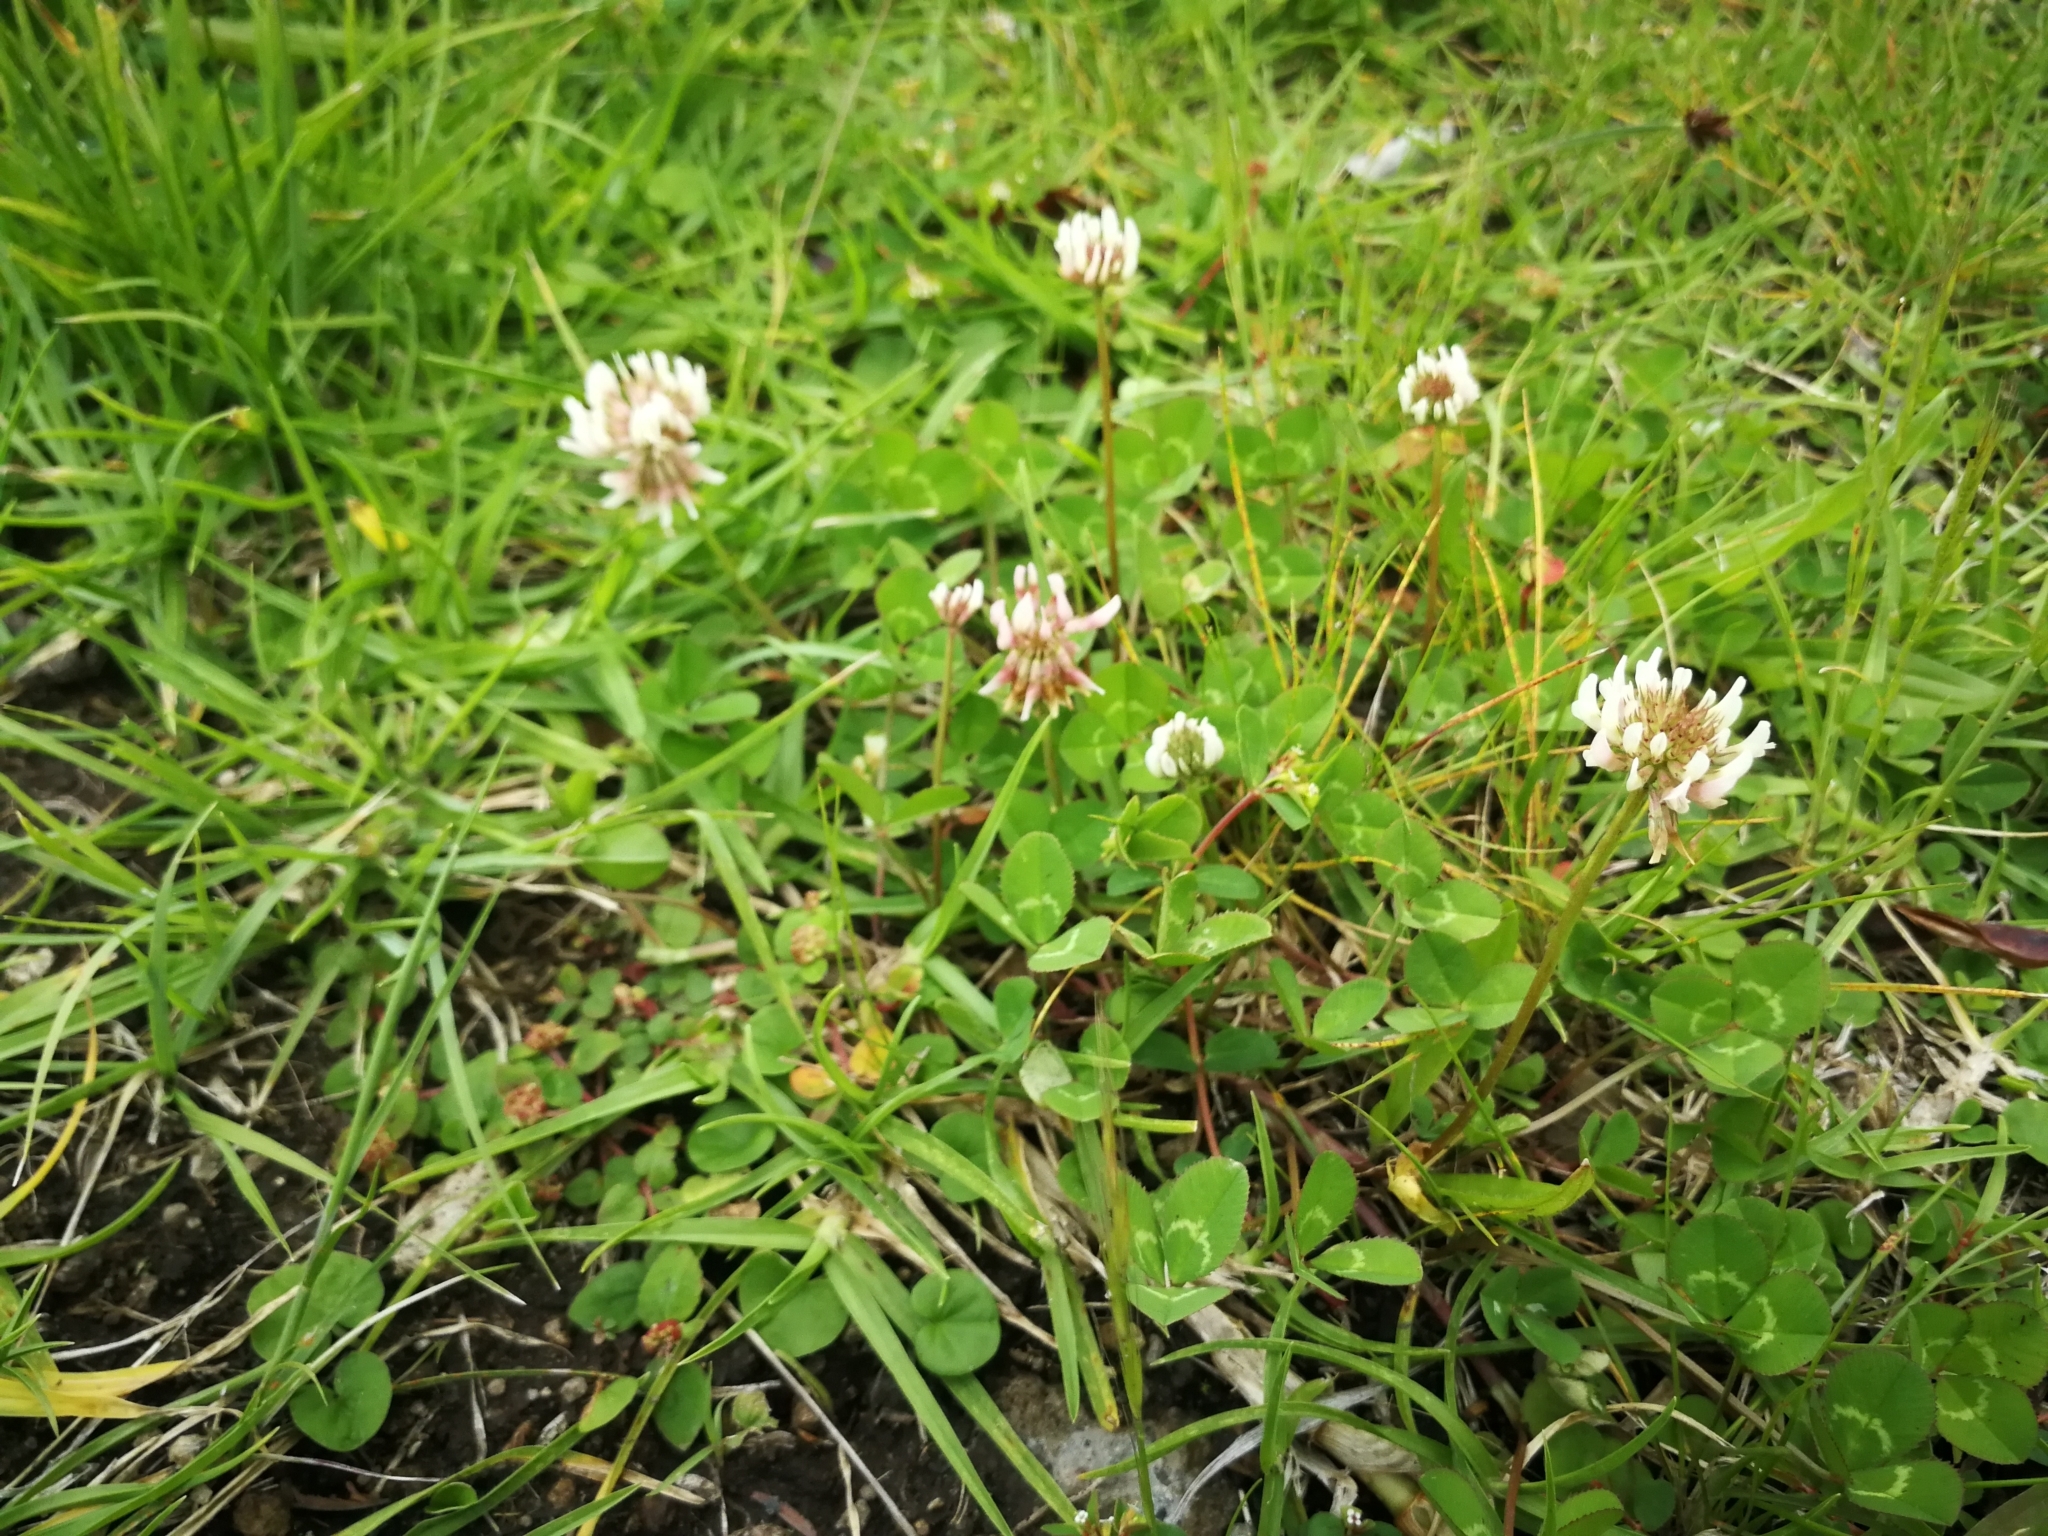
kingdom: Plantae
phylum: Tracheophyta
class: Magnoliopsida
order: Fabales
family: Fabaceae
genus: Trifolium
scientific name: Trifolium repens
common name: White clover
